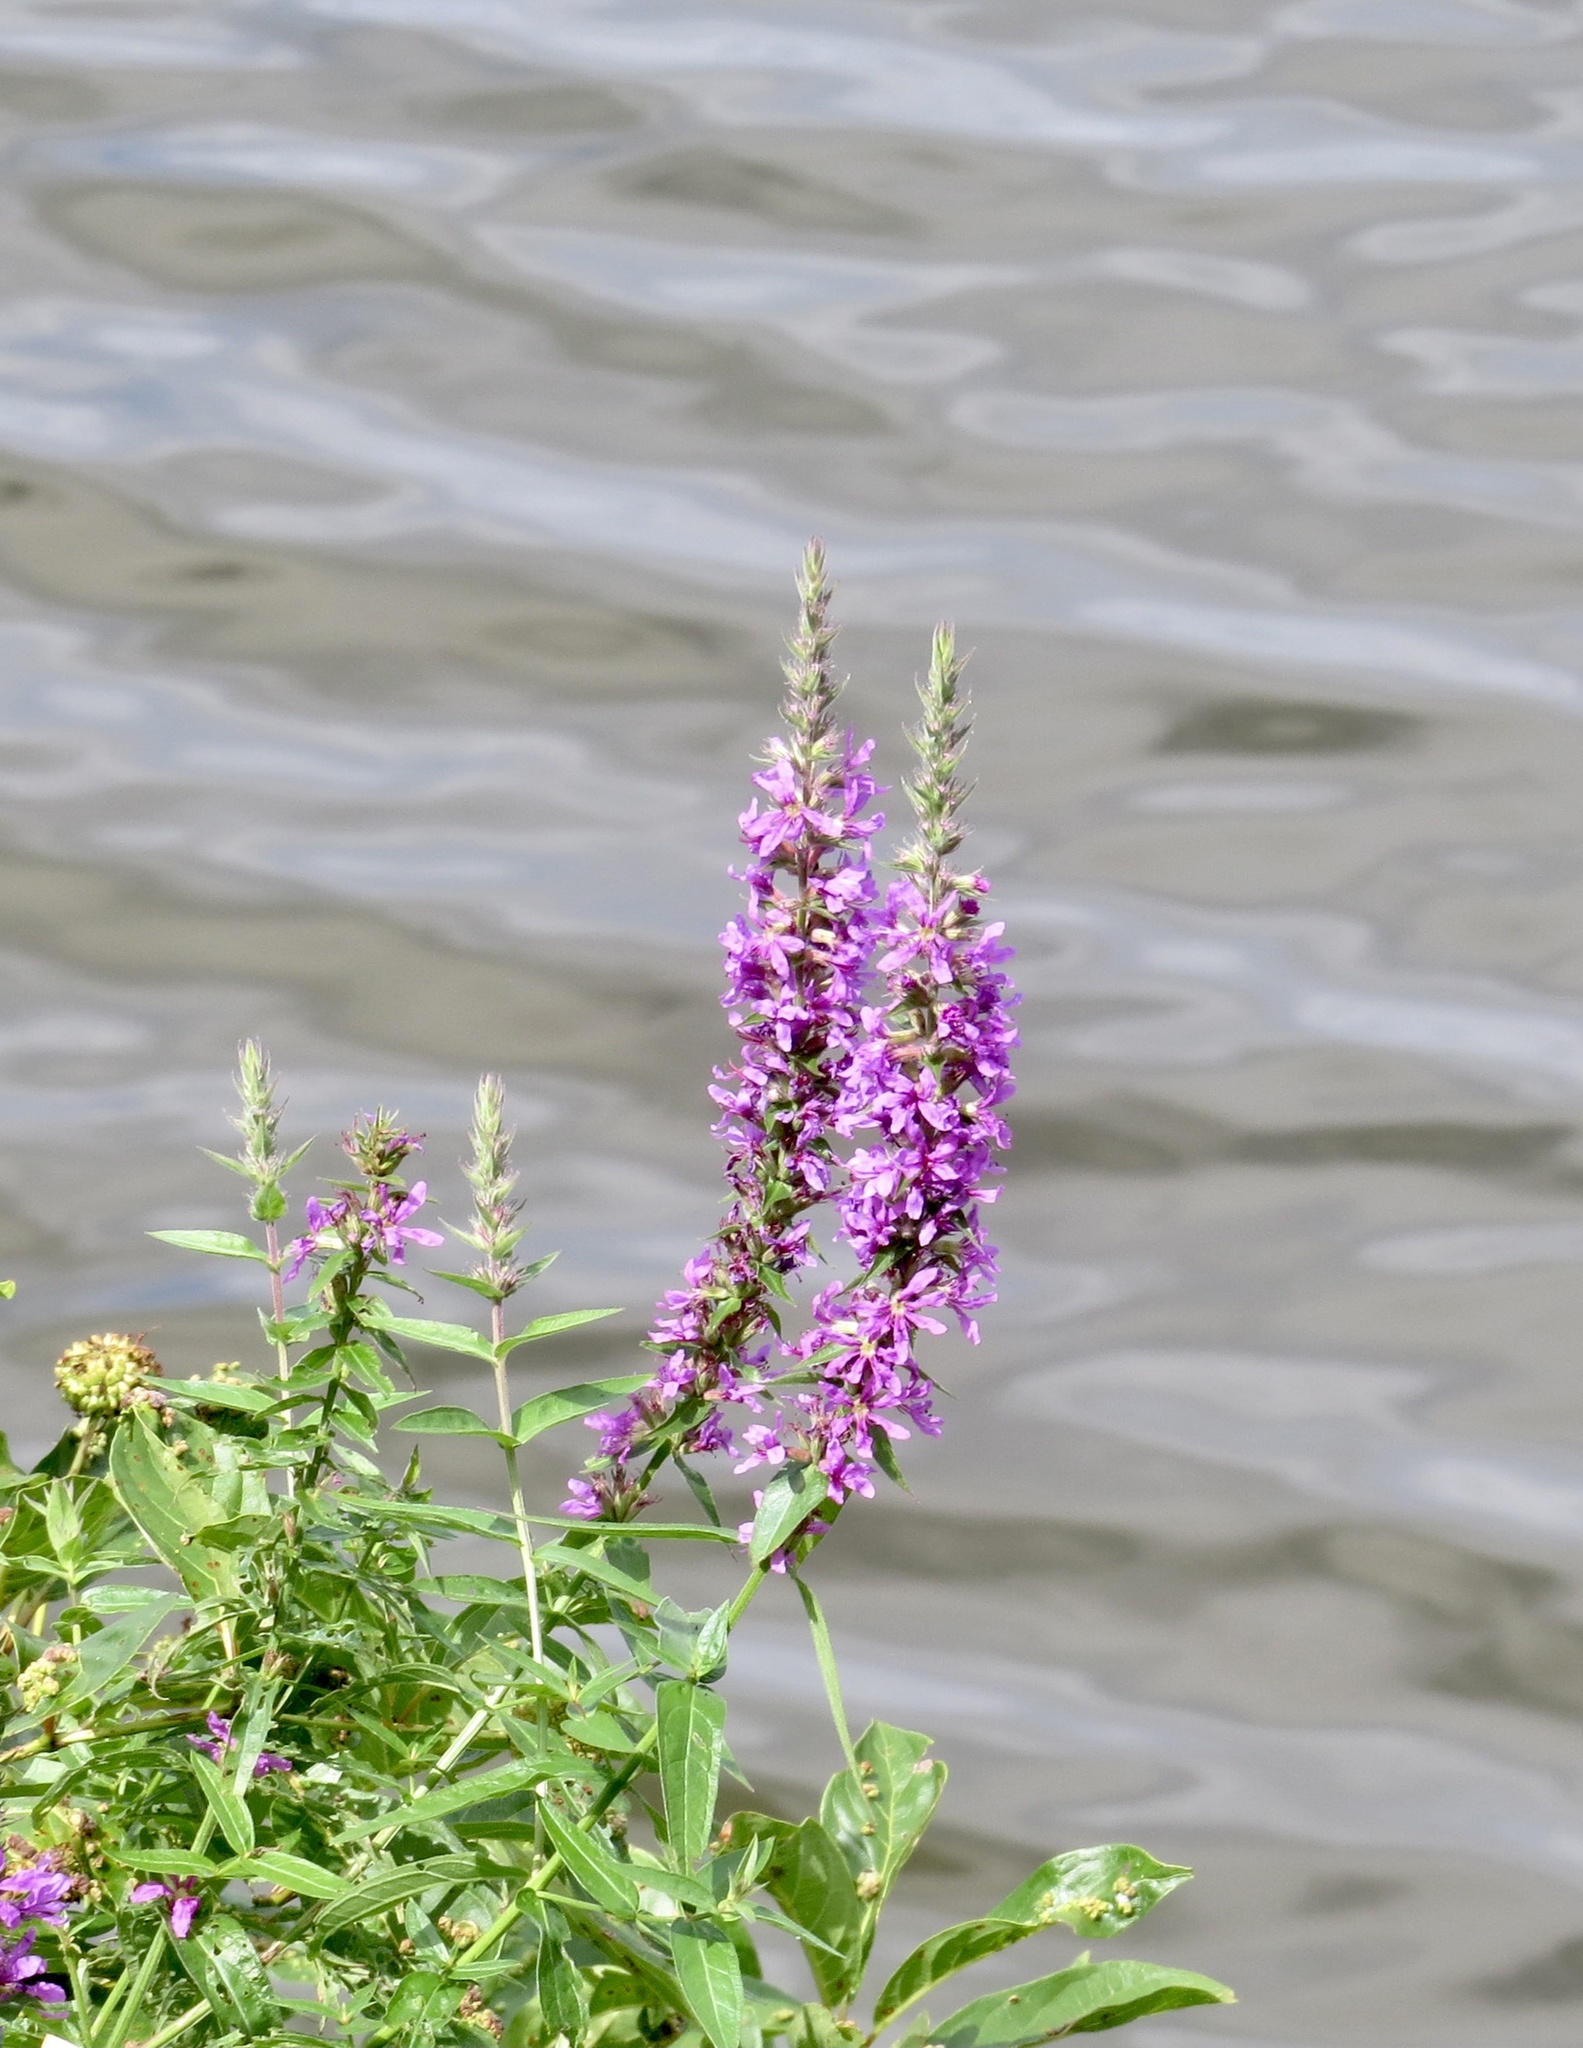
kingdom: Plantae
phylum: Tracheophyta
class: Magnoliopsida
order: Myrtales
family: Lythraceae
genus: Lythrum
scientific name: Lythrum salicaria
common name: Purple loosestrife
